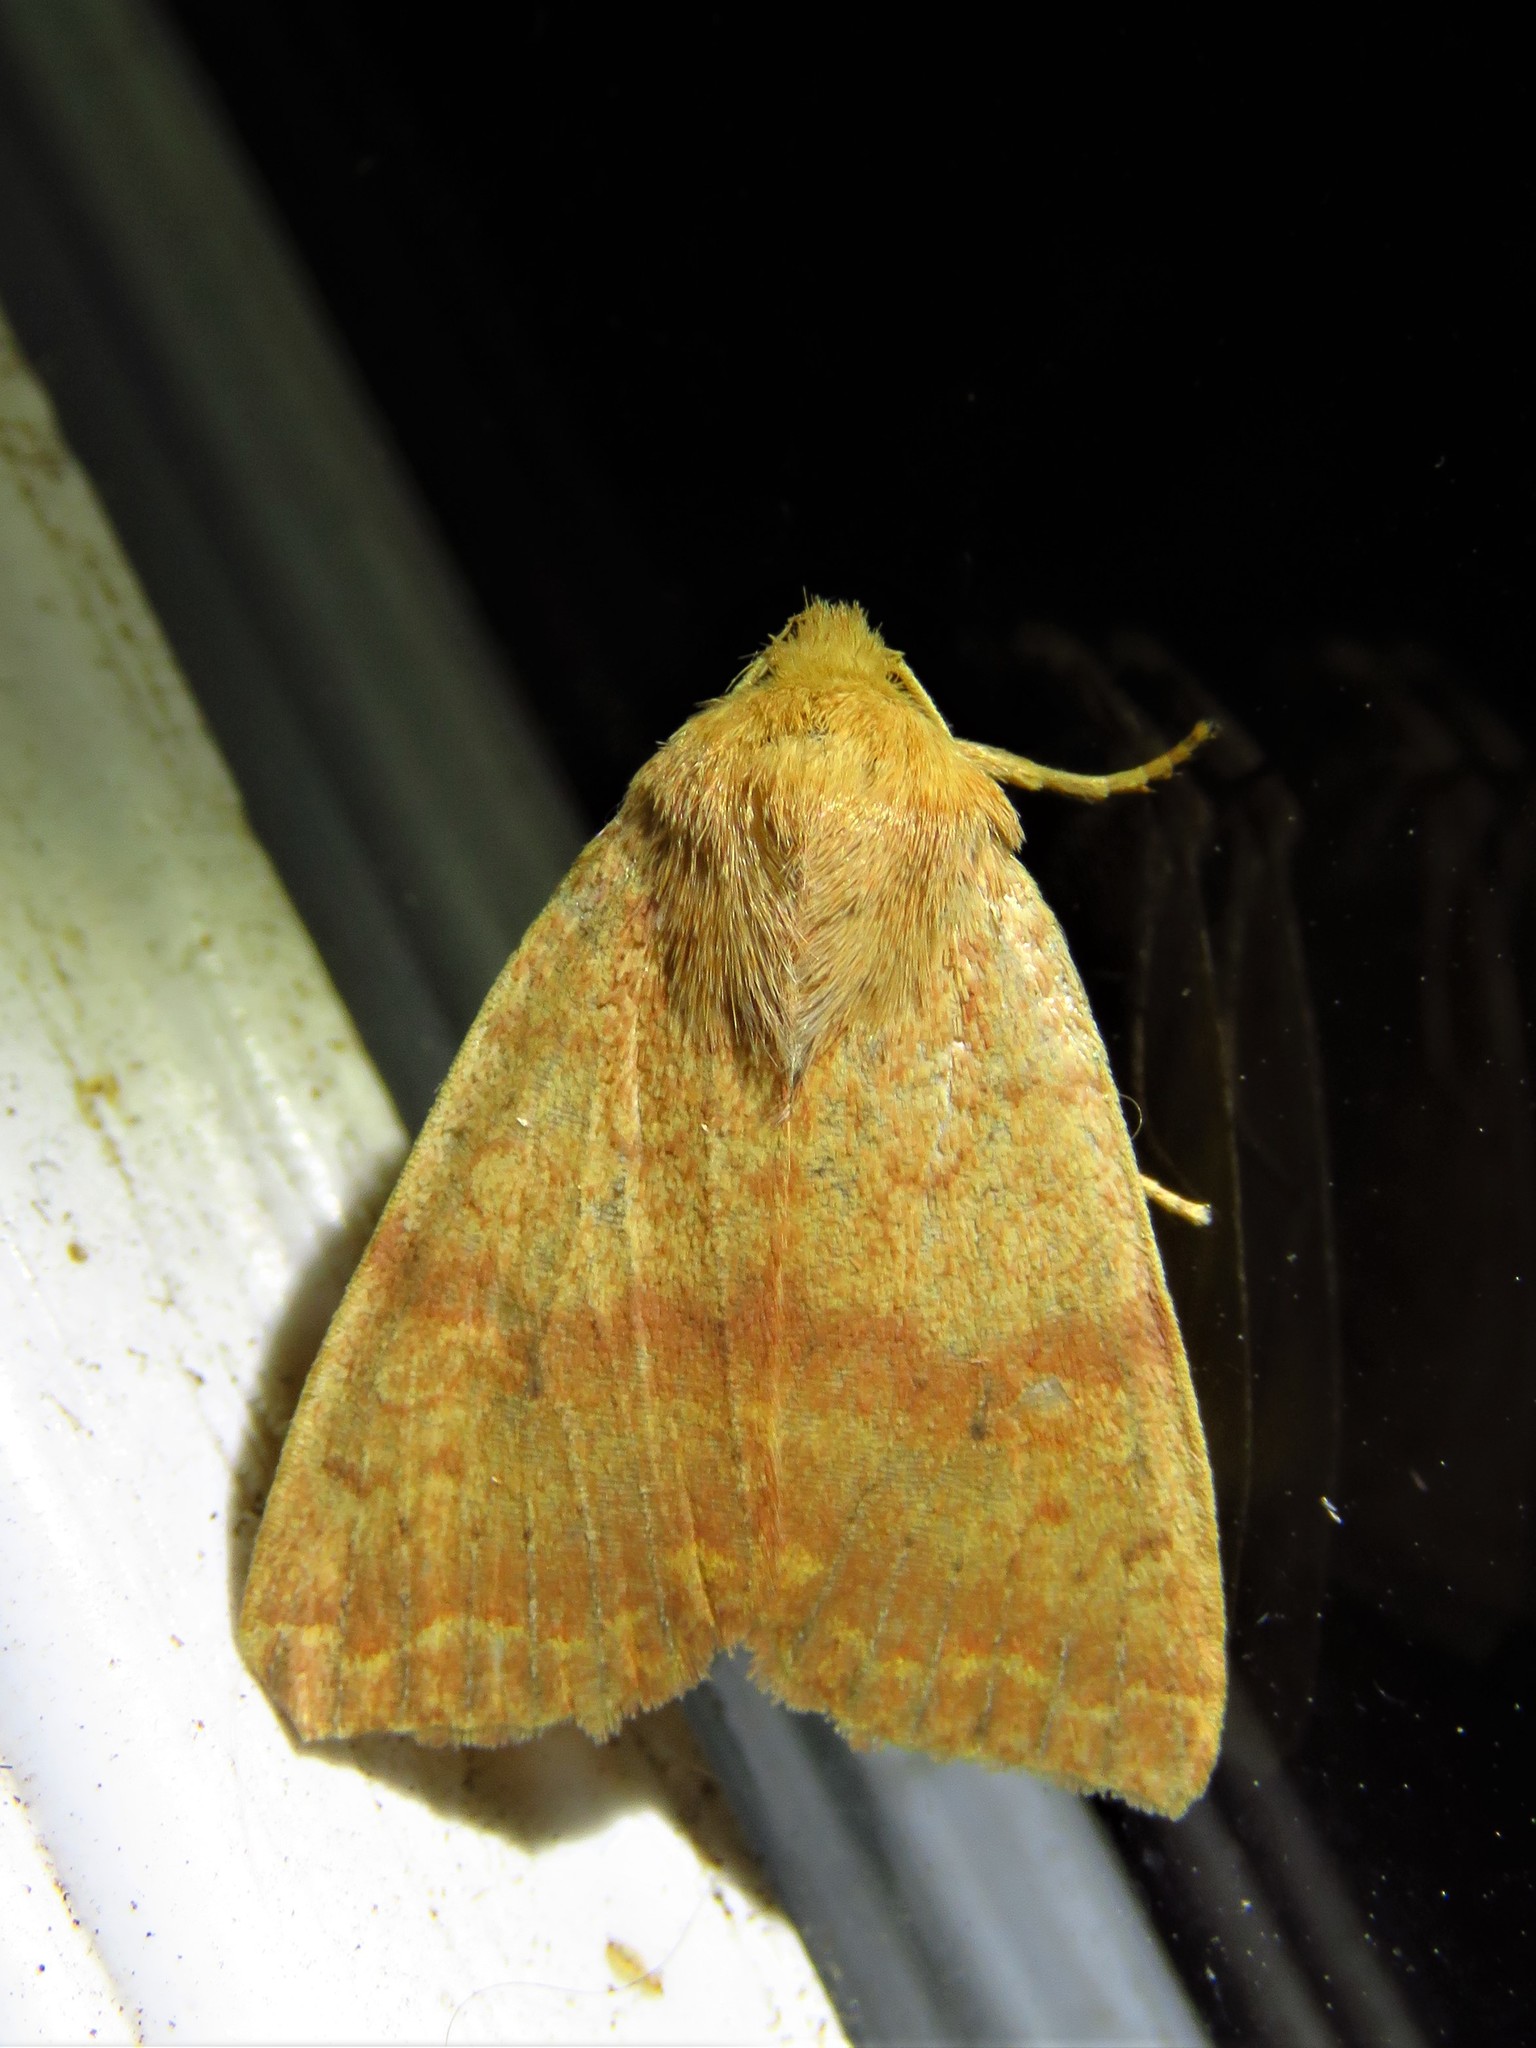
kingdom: Animalia
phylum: Arthropoda
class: Insecta
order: Lepidoptera
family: Noctuidae
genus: Agrochola
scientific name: Agrochola bicolorago
